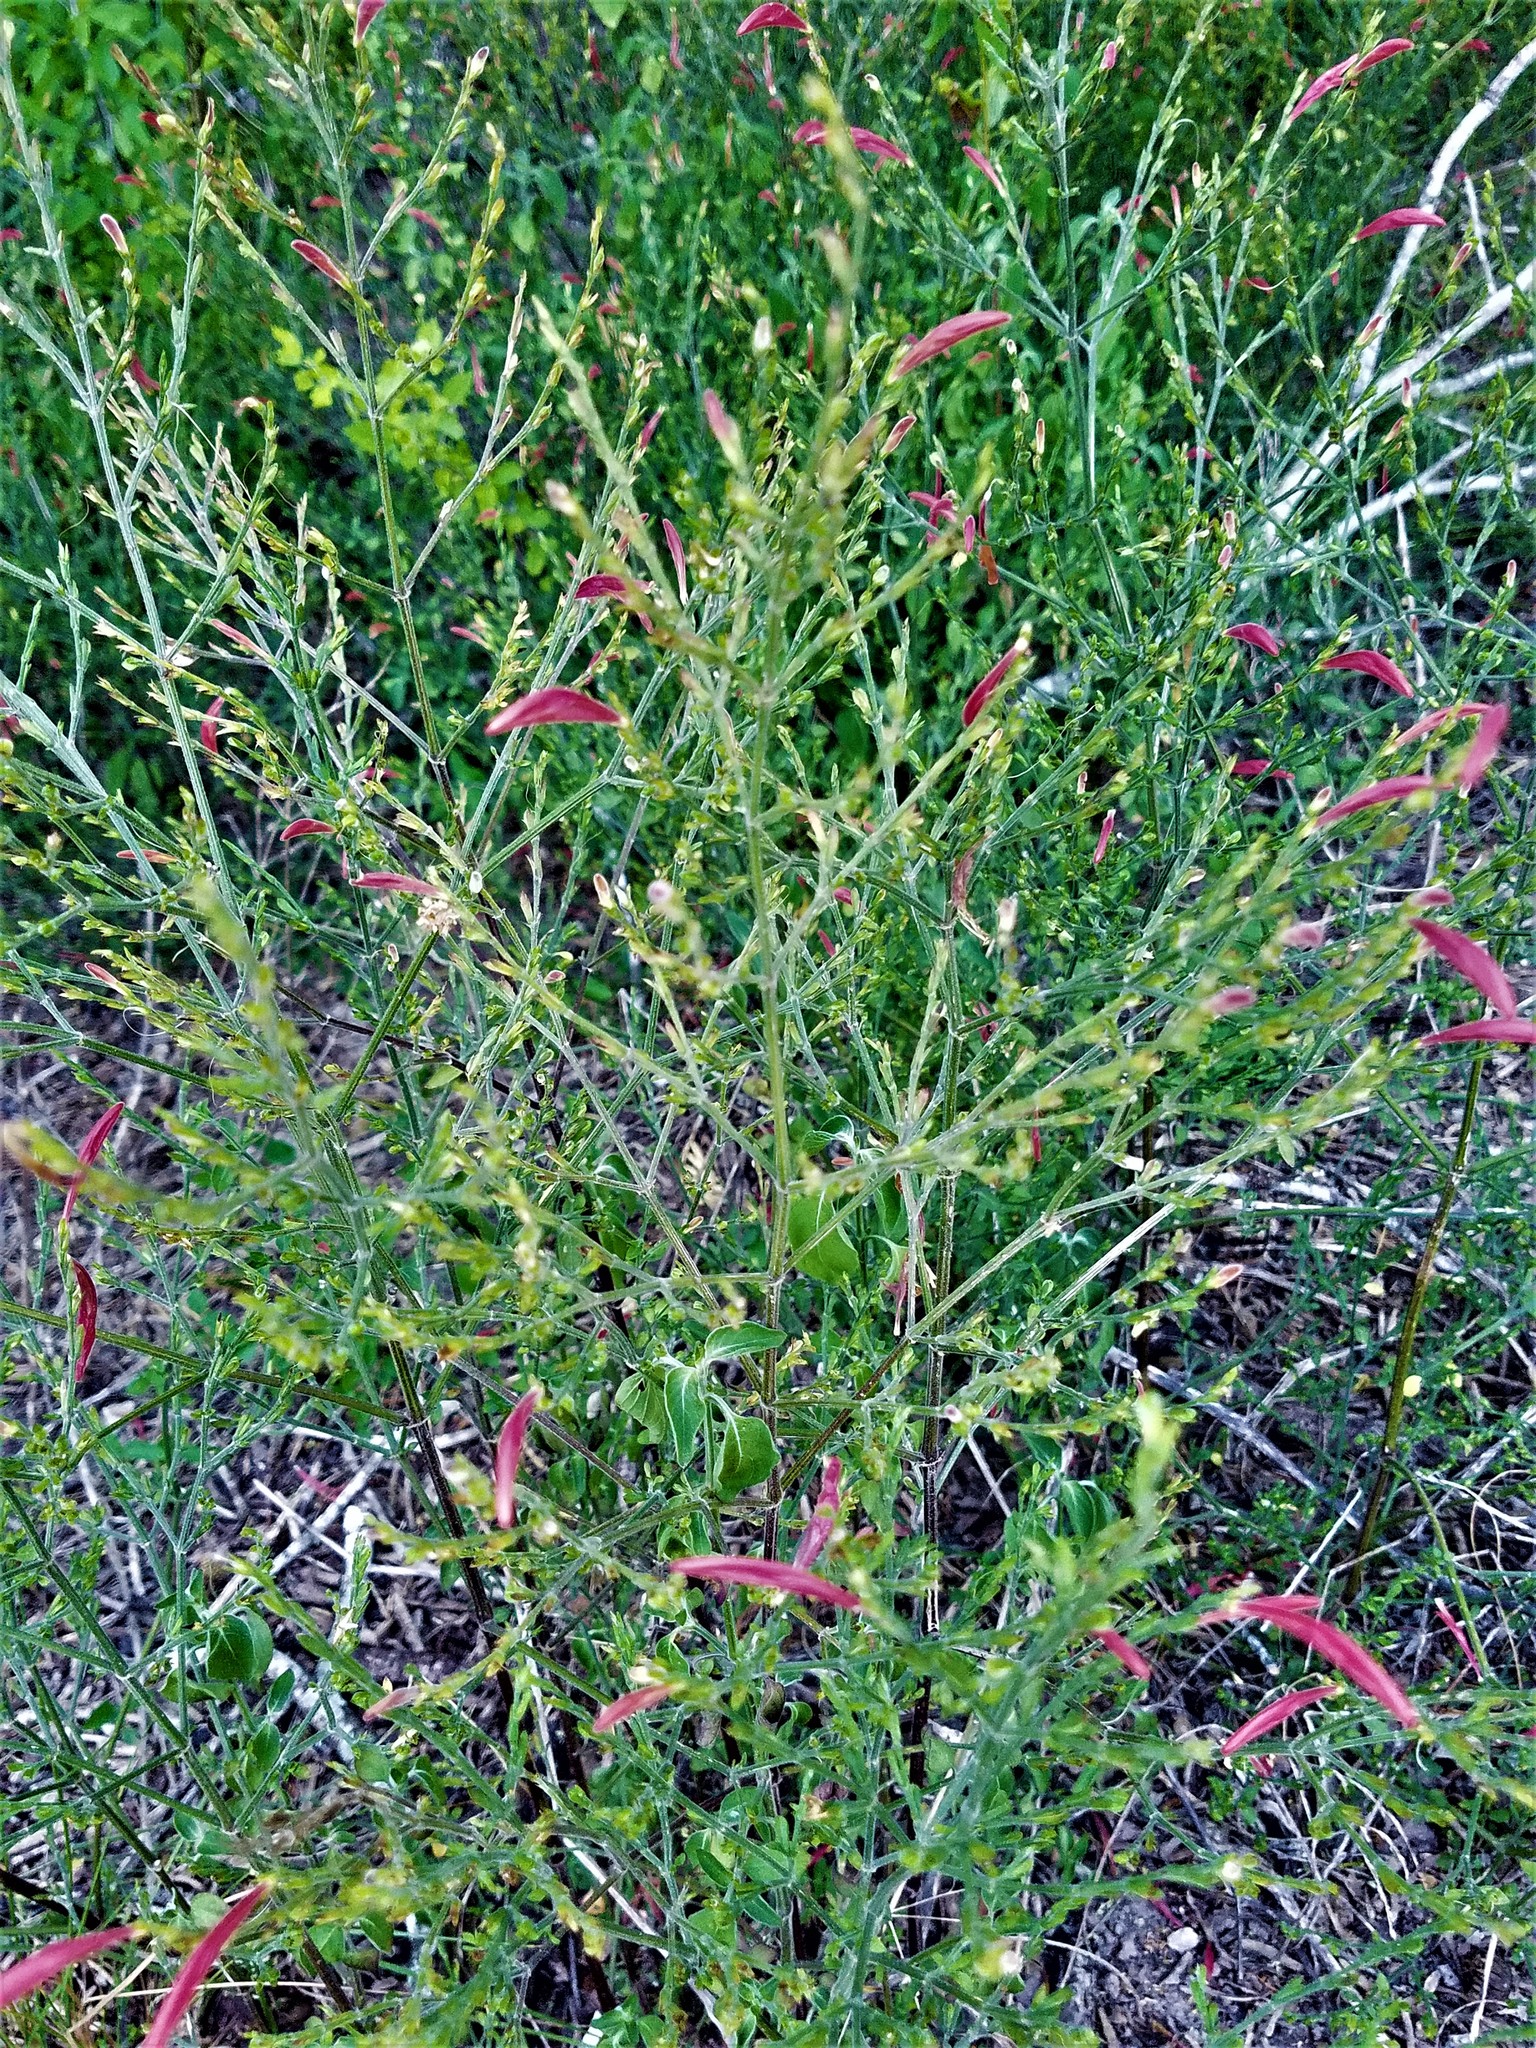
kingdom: Plantae
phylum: Tracheophyta
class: Magnoliopsida
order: Lamiales
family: Acanthaceae
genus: Dicliptera
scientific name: Dicliptera sexangularis
